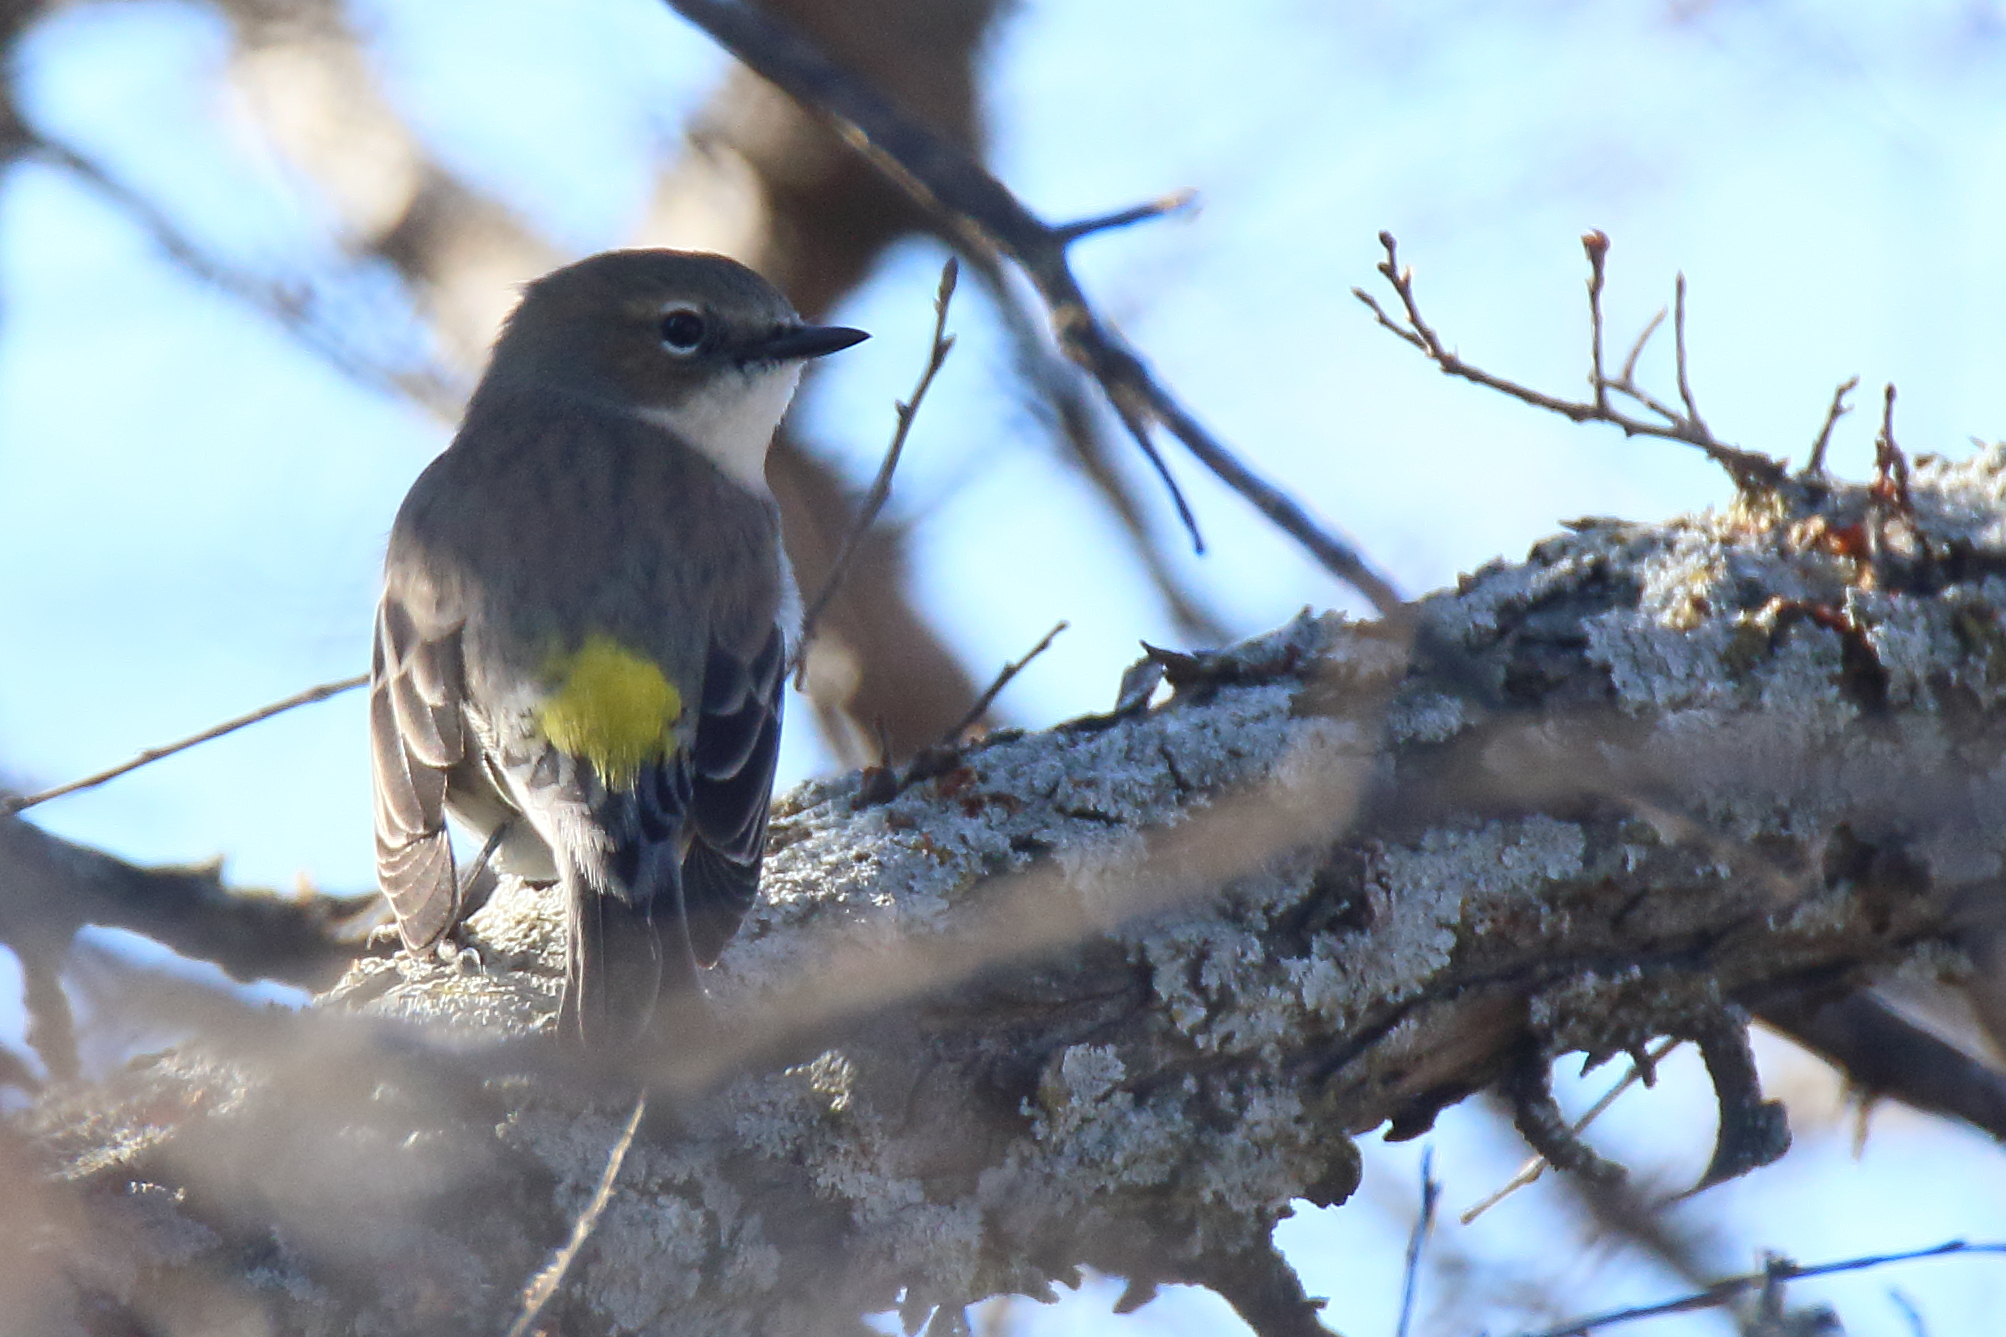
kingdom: Animalia
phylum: Chordata
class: Aves
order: Passeriformes
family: Parulidae
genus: Setophaga
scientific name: Setophaga coronata
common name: Myrtle warbler
